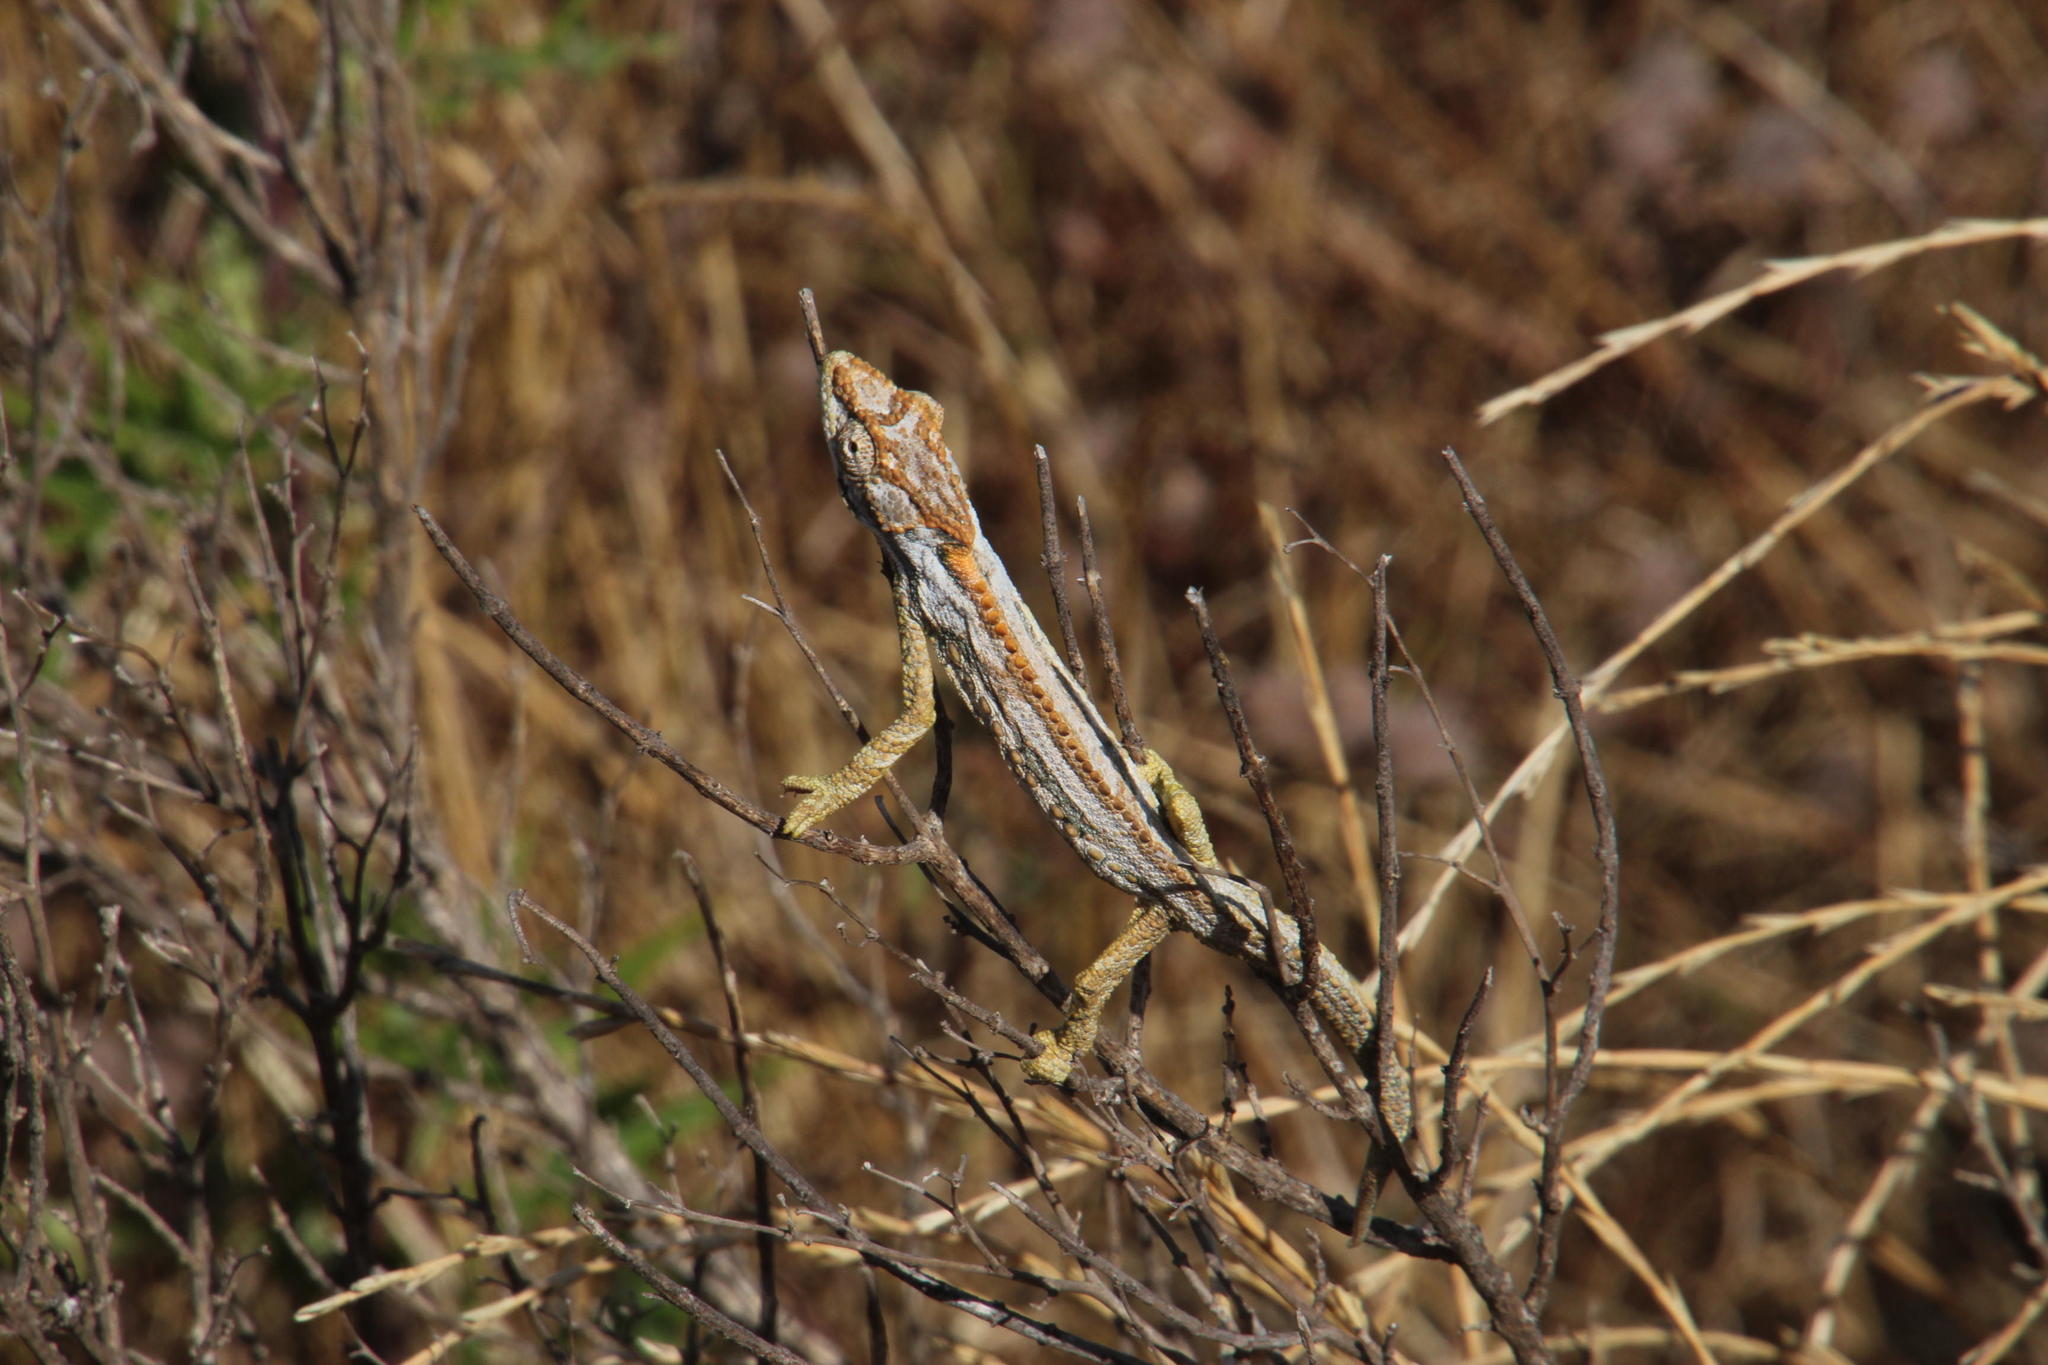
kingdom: Animalia
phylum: Chordata
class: Squamata
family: Chamaeleonidae
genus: Bradypodion
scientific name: Bradypodion gutturale
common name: Little karoo dwarf chameleon
